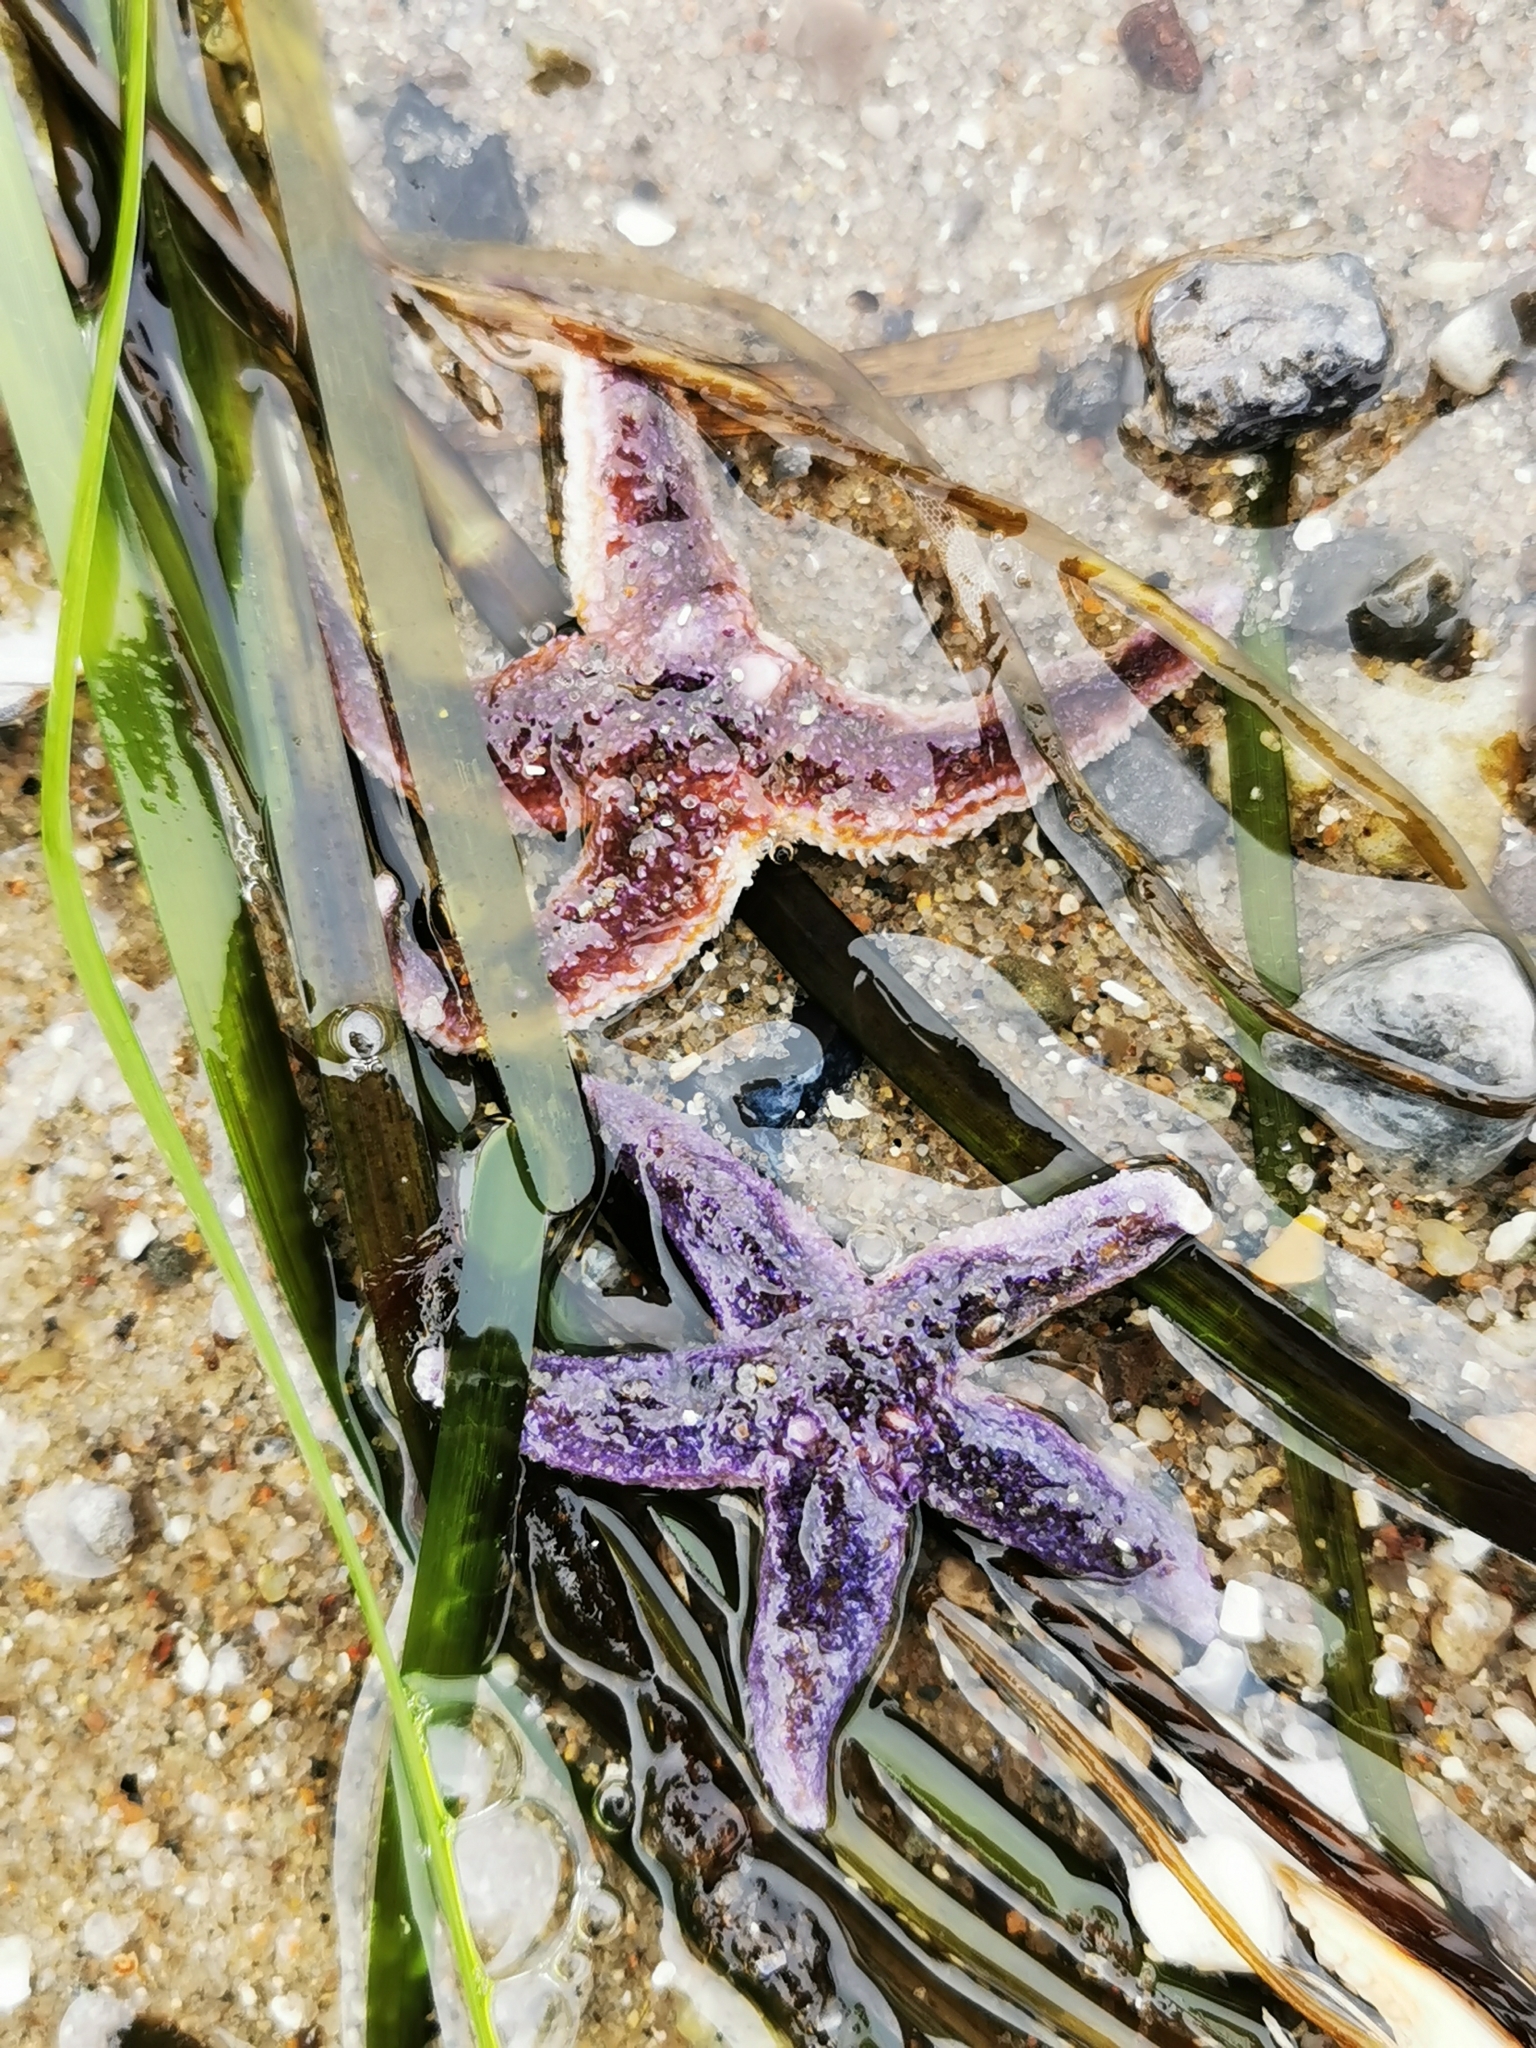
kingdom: Animalia
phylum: Echinodermata
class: Asteroidea
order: Forcipulatida
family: Asteriidae
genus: Asterias
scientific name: Asterias rubens
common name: Common starfish
